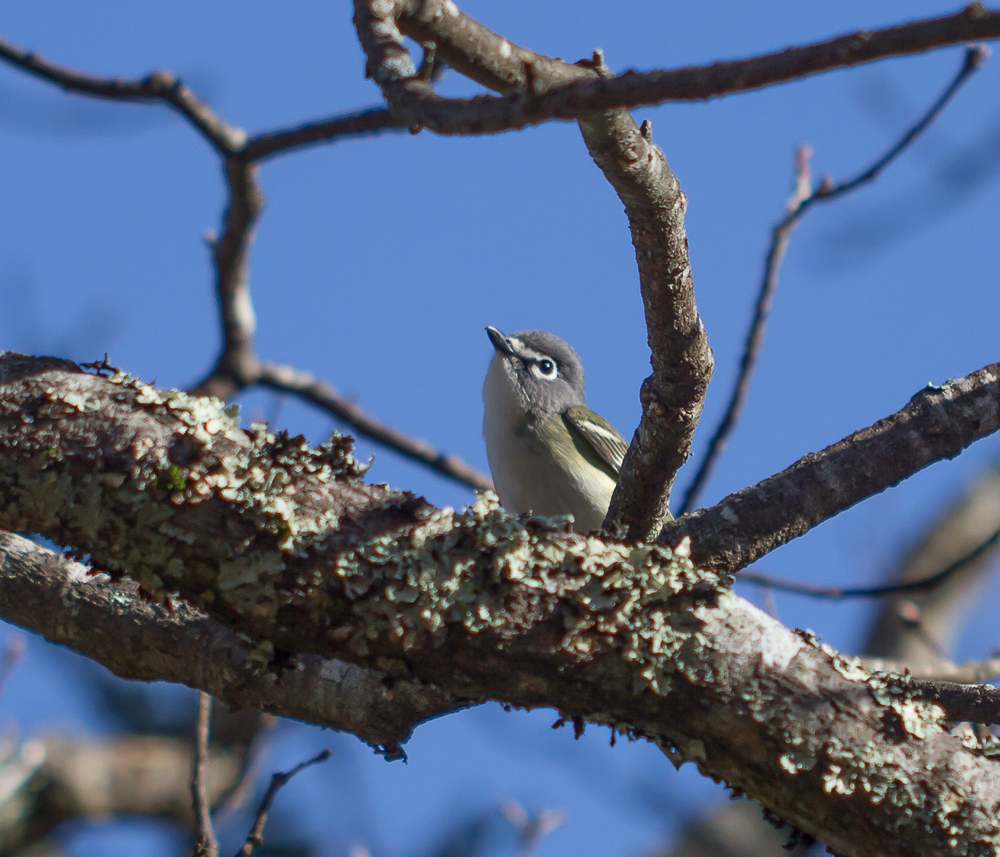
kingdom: Animalia
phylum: Chordata
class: Aves
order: Passeriformes
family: Vireonidae
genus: Vireo
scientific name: Vireo solitarius
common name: Blue-headed vireo
